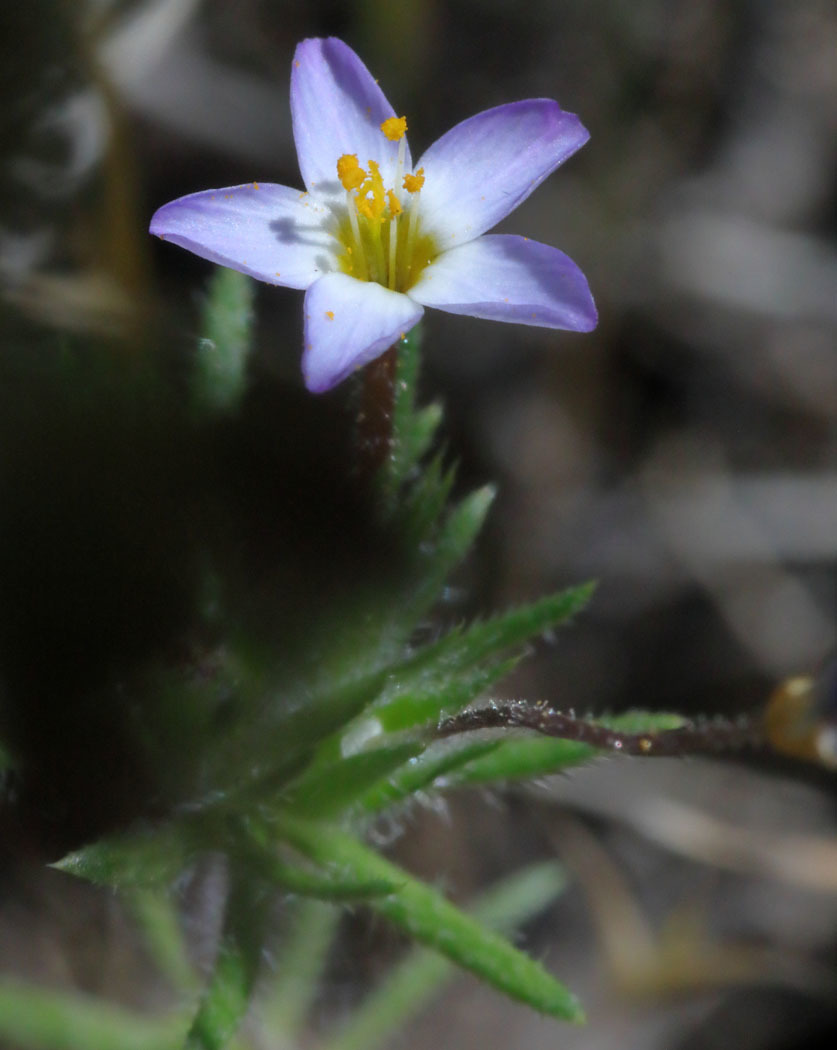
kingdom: Plantae
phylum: Tracheophyta
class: Magnoliopsida
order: Ericales
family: Polemoniaceae
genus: Leptosiphon
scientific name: Leptosiphon bicolor
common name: True babystars
